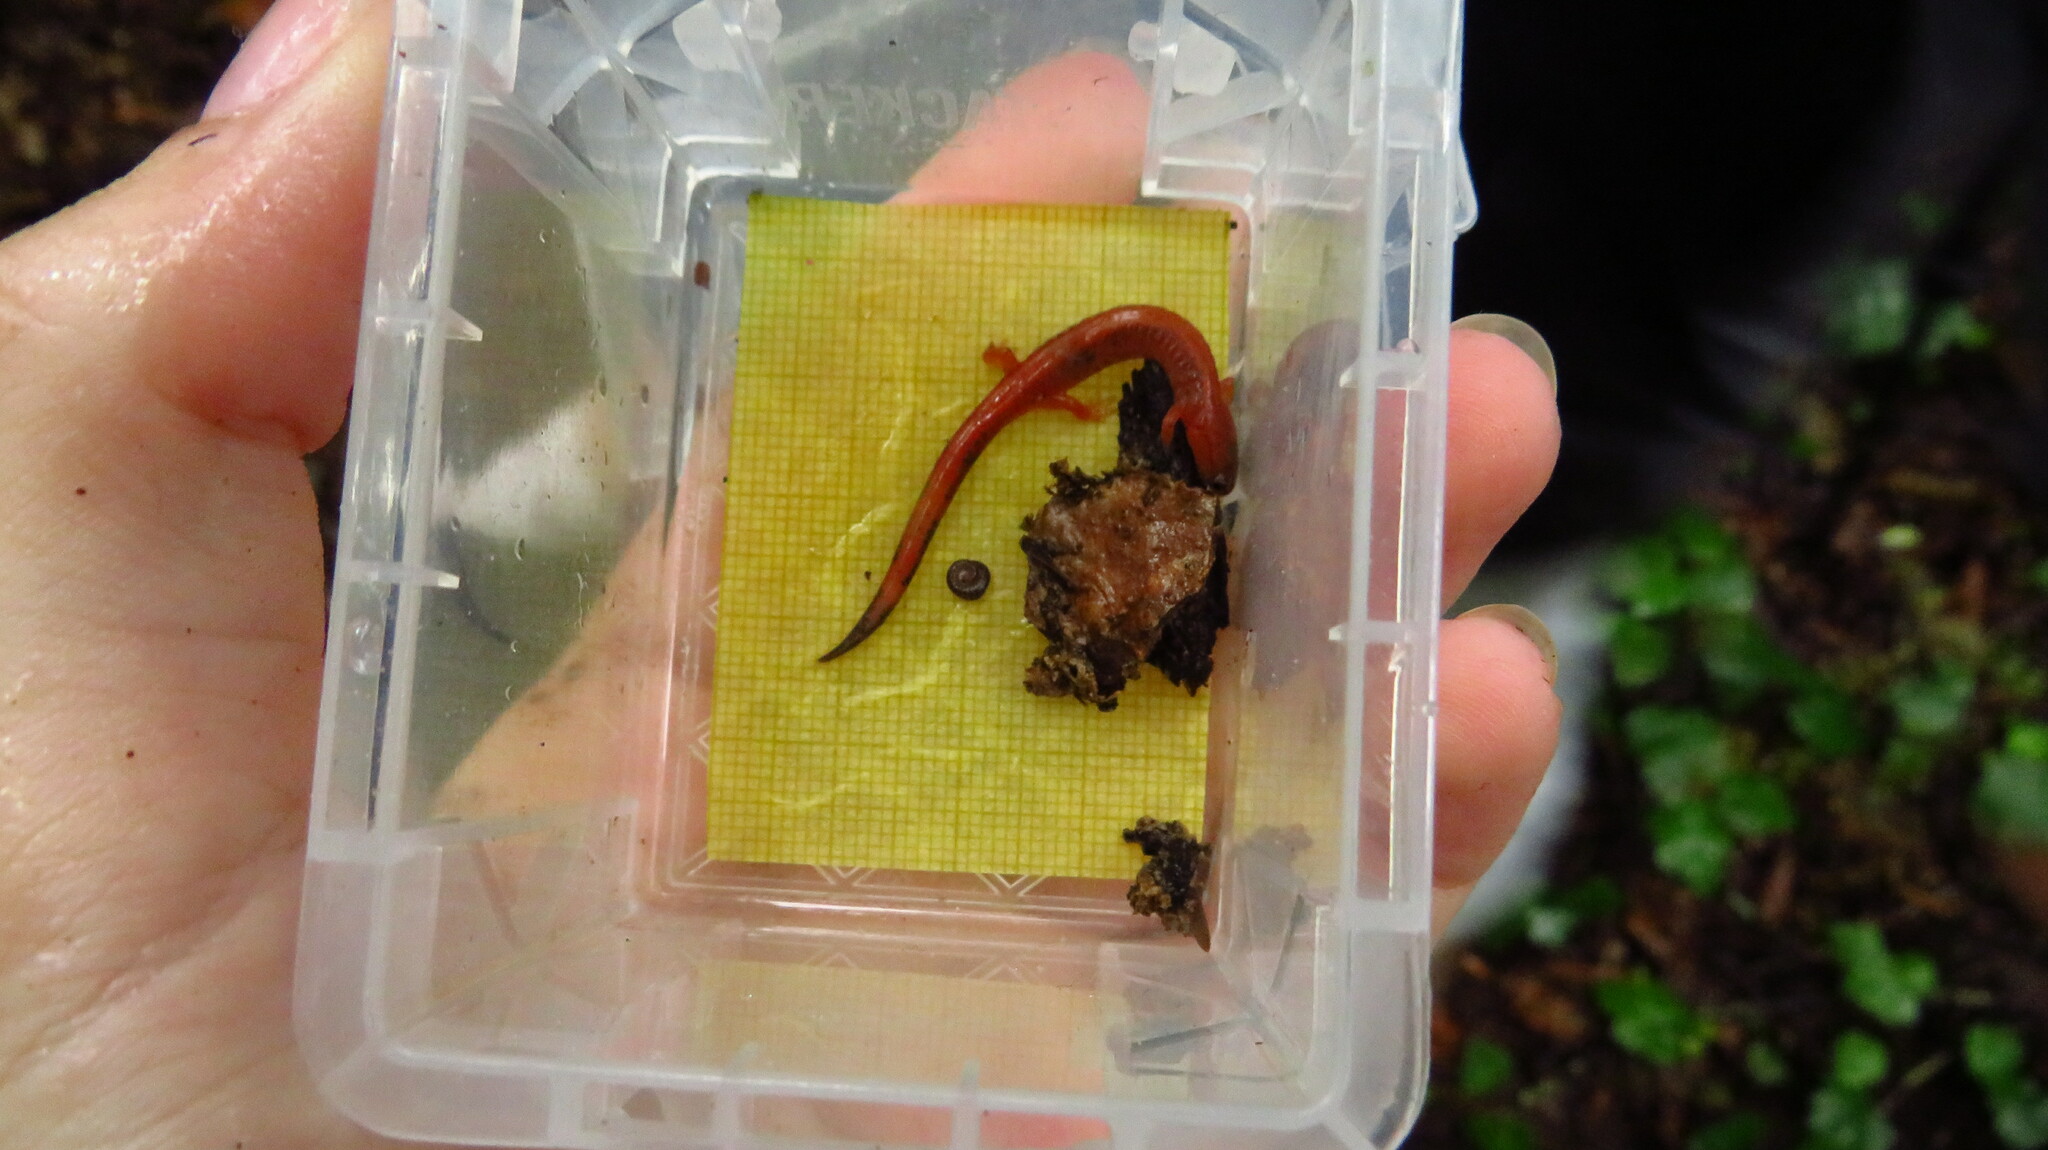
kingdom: Animalia
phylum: Chordata
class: Amphibia
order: Caudata
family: Plethodontidae
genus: Plethodon
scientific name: Plethodon cinereus
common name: Redback salamander
